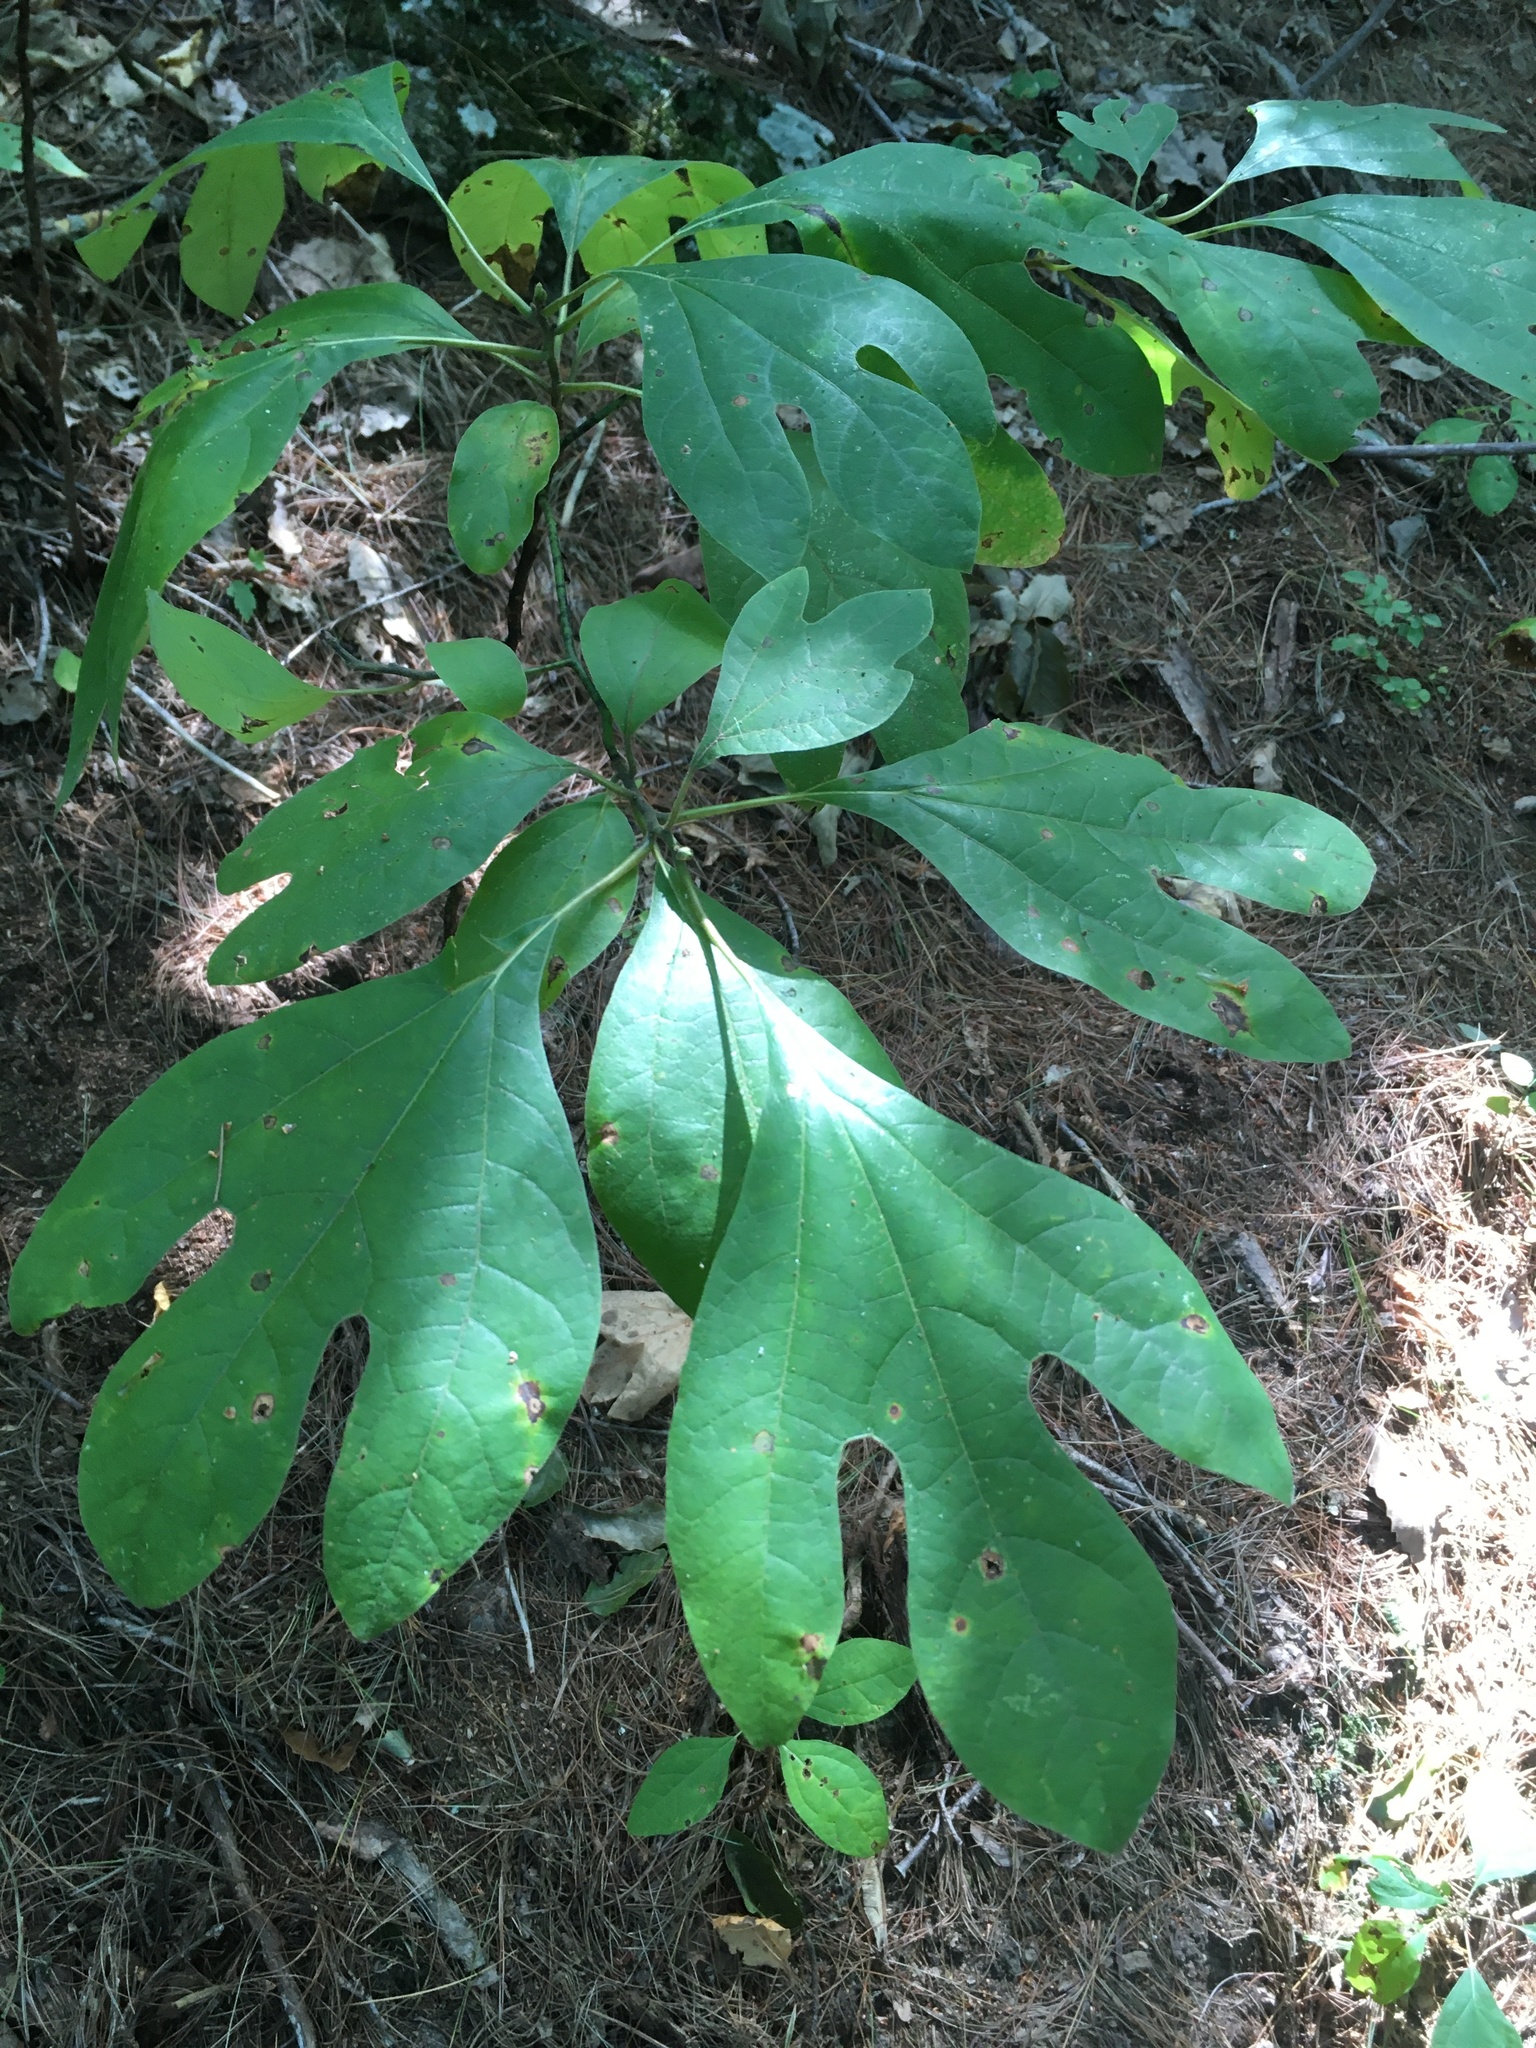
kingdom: Plantae
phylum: Tracheophyta
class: Magnoliopsida
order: Laurales
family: Lauraceae
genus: Sassafras
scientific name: Sassafras albidum
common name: Sassafras
